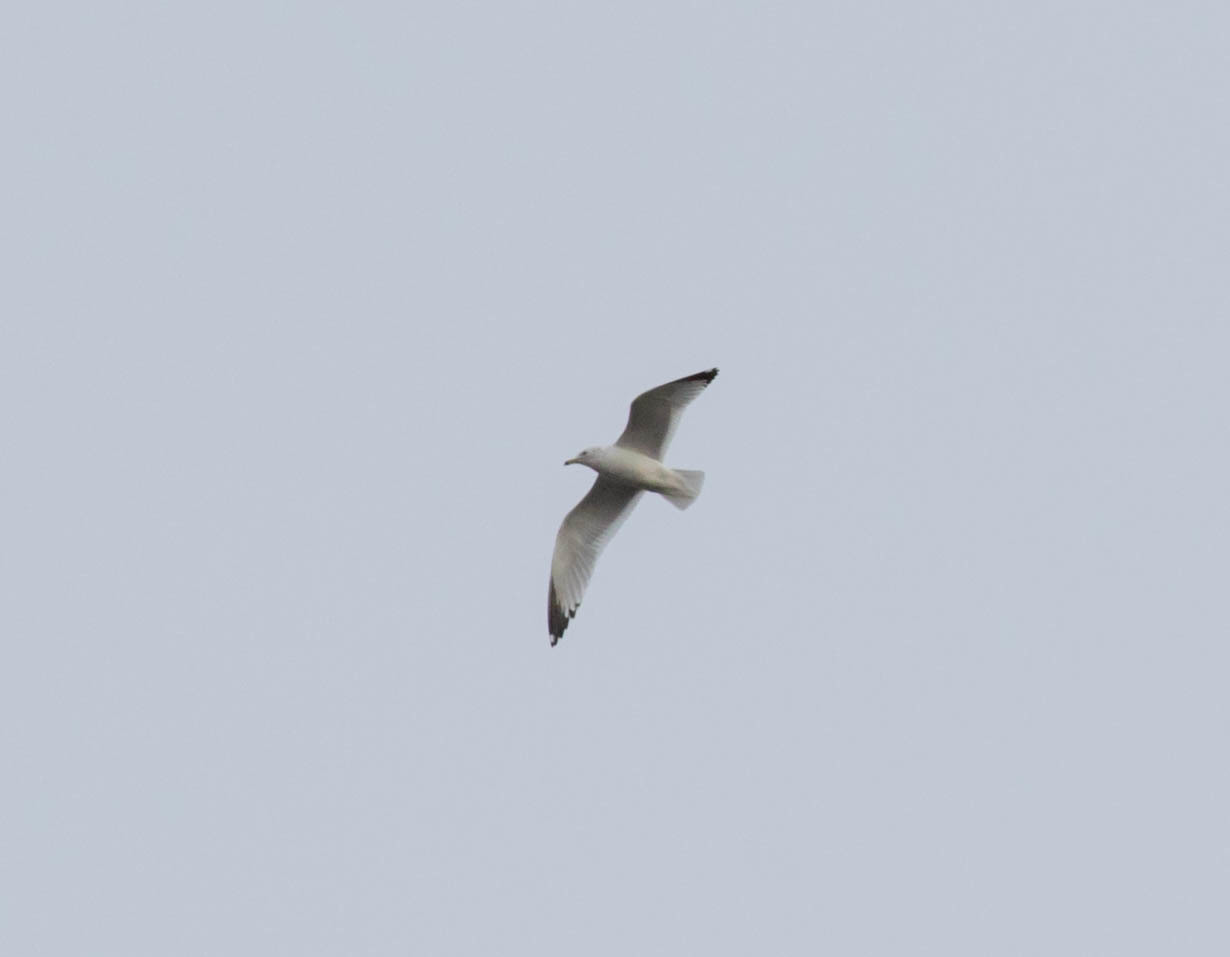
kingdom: Animalia
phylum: Chordata
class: Aves
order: Charadriiformes
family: Laridae
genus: Larus
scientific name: Larus delawarensis
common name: Ring-billed gull
